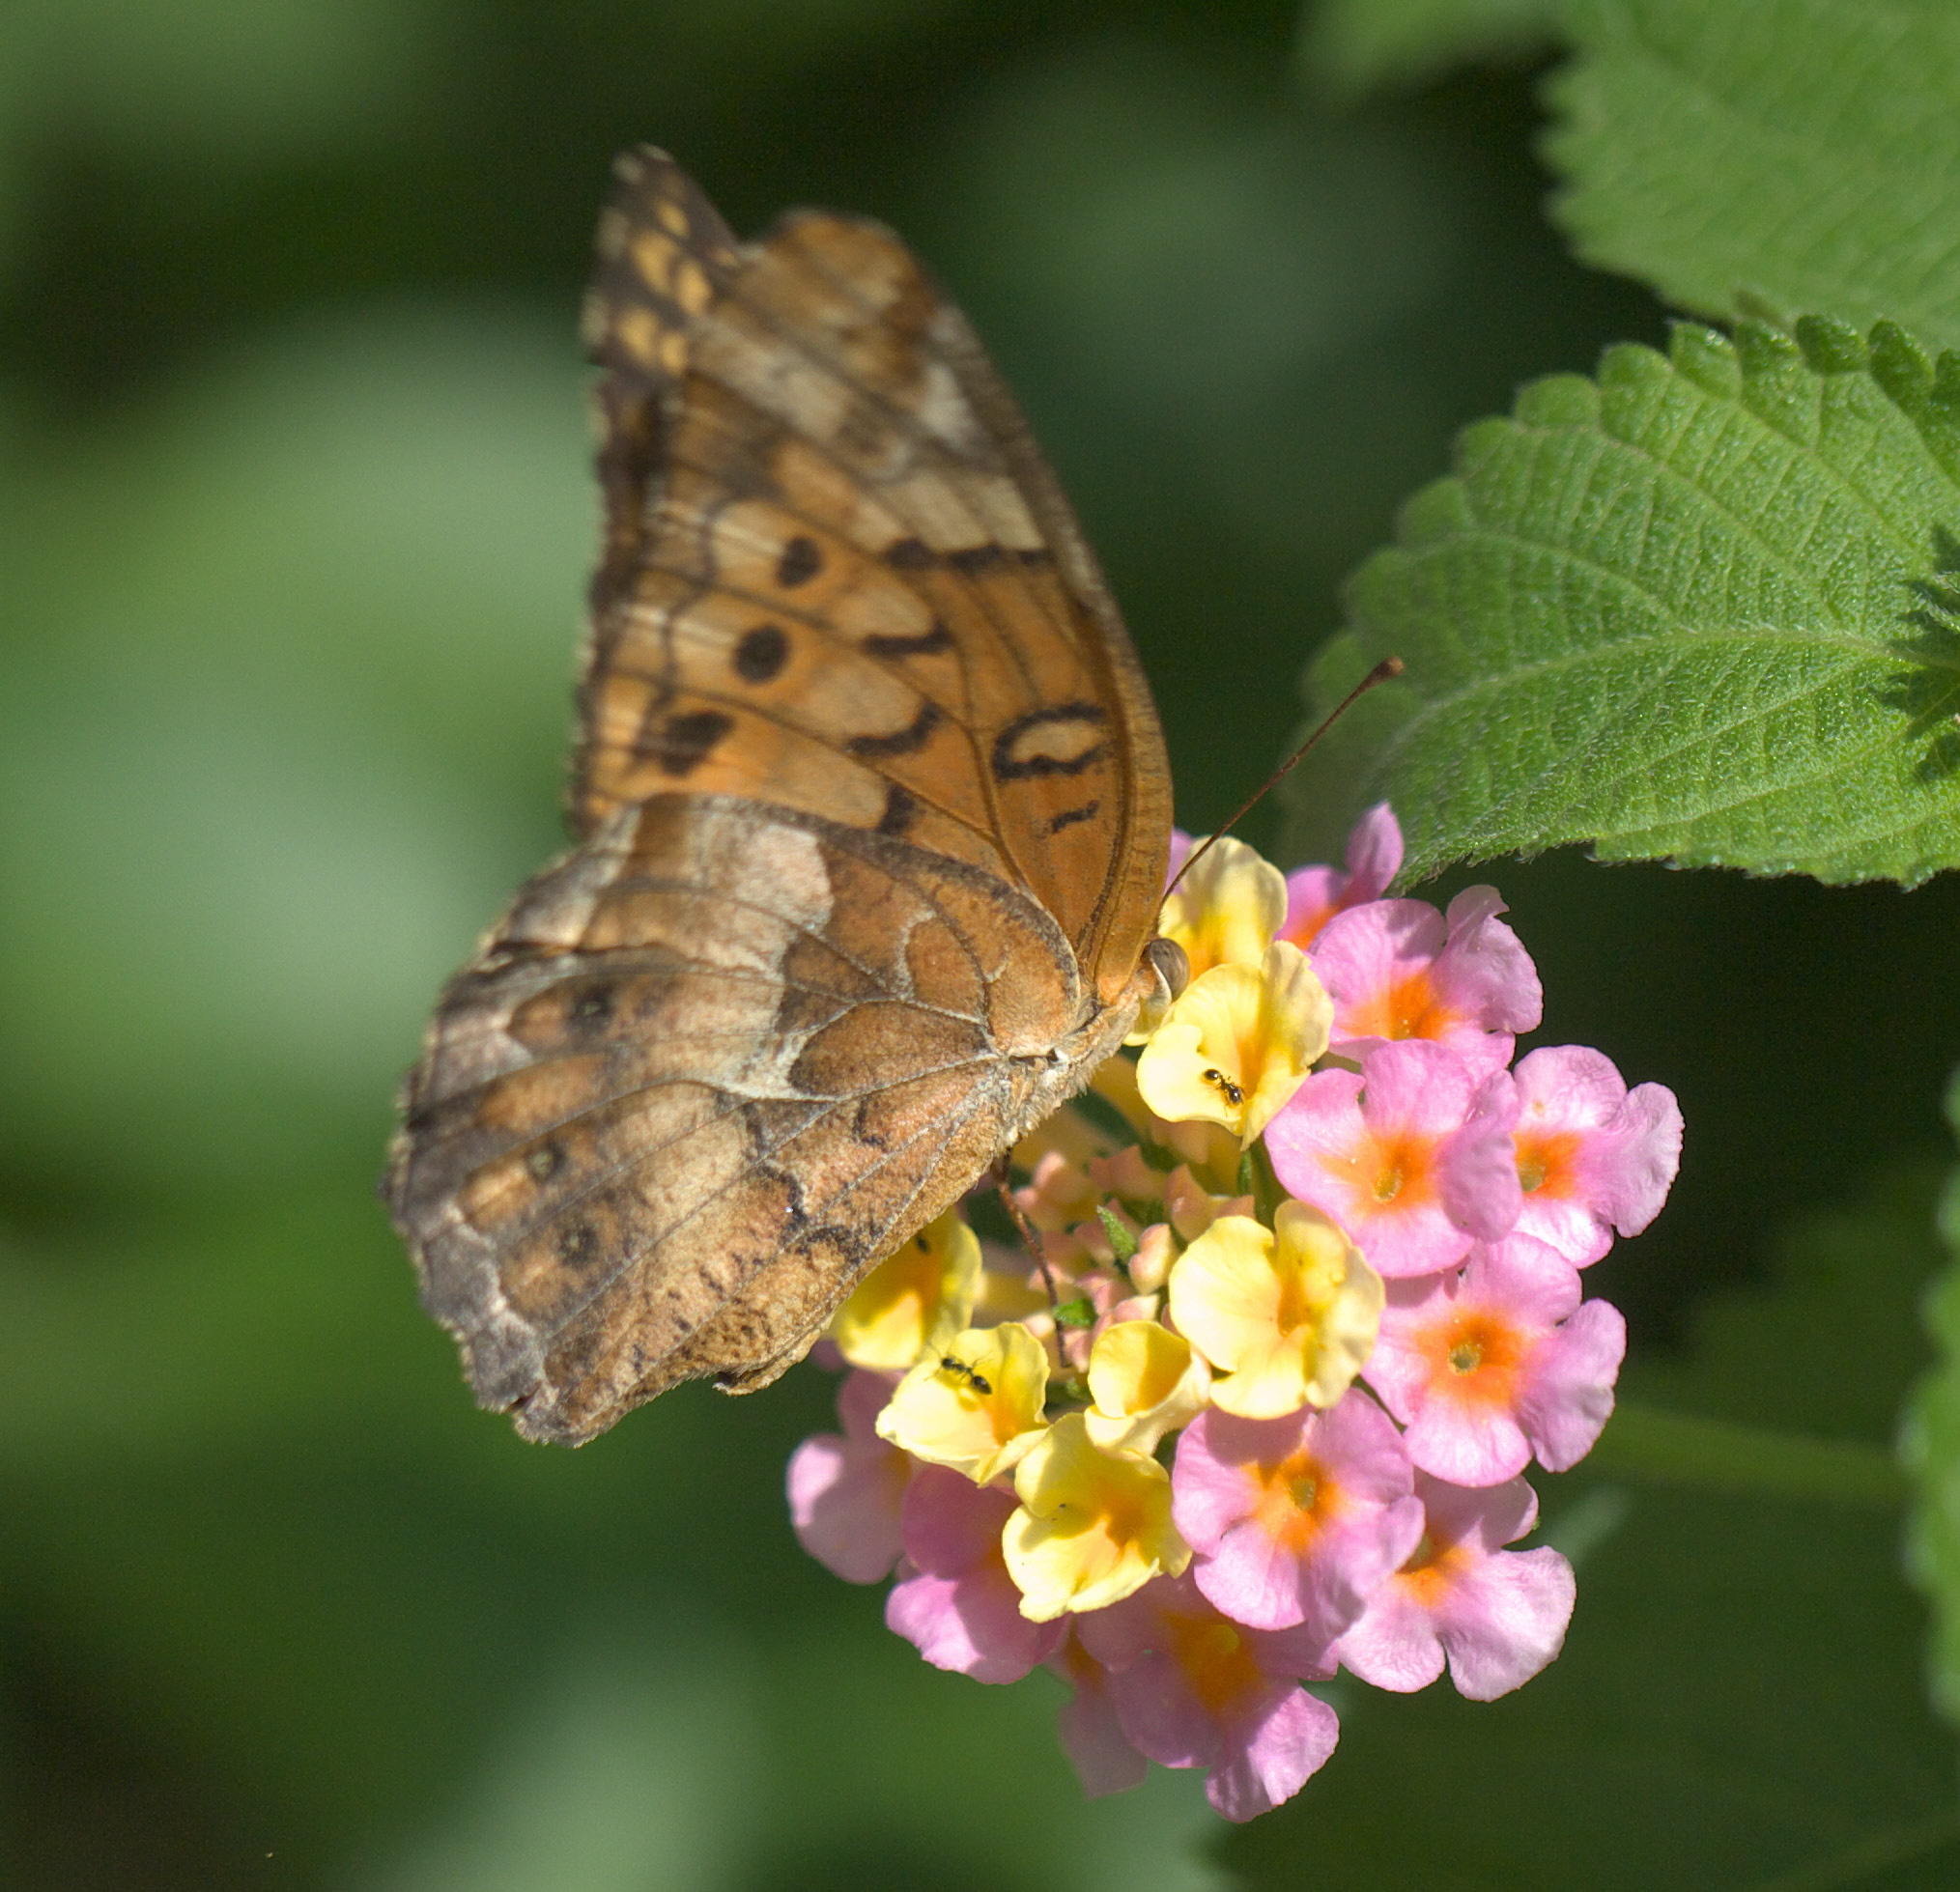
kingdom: Animalia
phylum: Arthropoda
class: Insecta
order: Lepidoptera
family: Nymphalidae
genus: Euptoieta
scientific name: Euptoieta claudia
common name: Variegated fritillary
